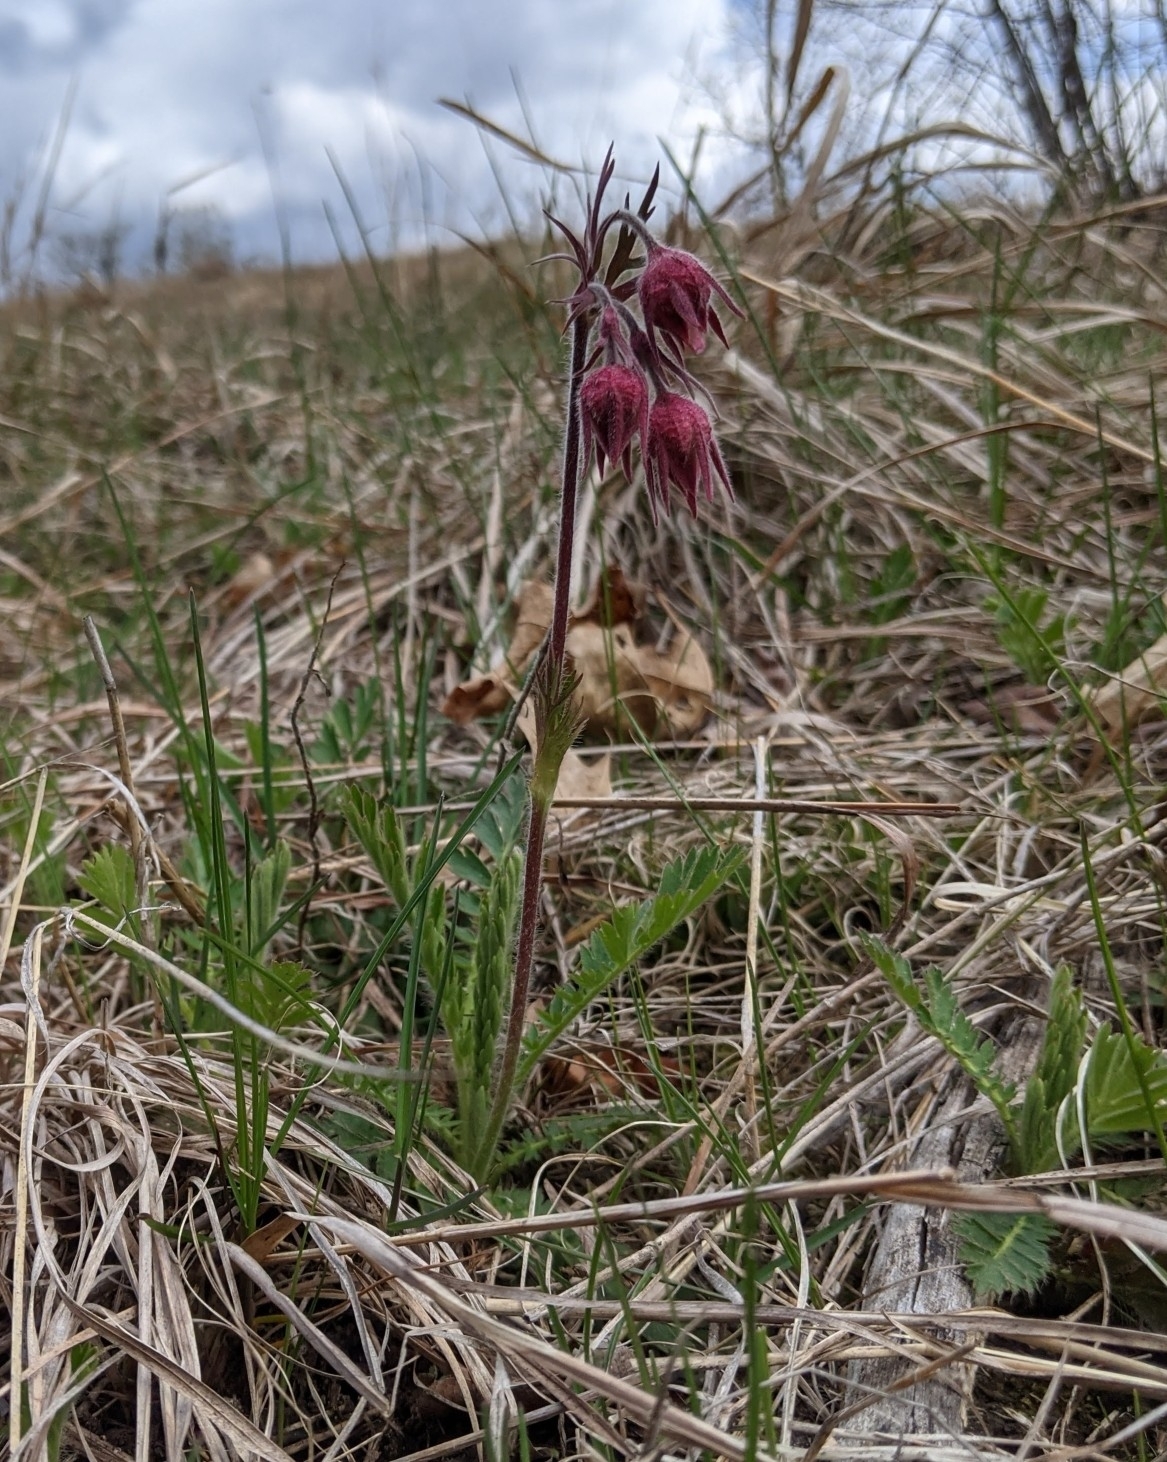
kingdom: Plantae
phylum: Tracheophyta
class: Magnoliopsida
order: Rosales
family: Rosaceae
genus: Geum
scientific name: Geum triflorum
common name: Old man's whiskers
